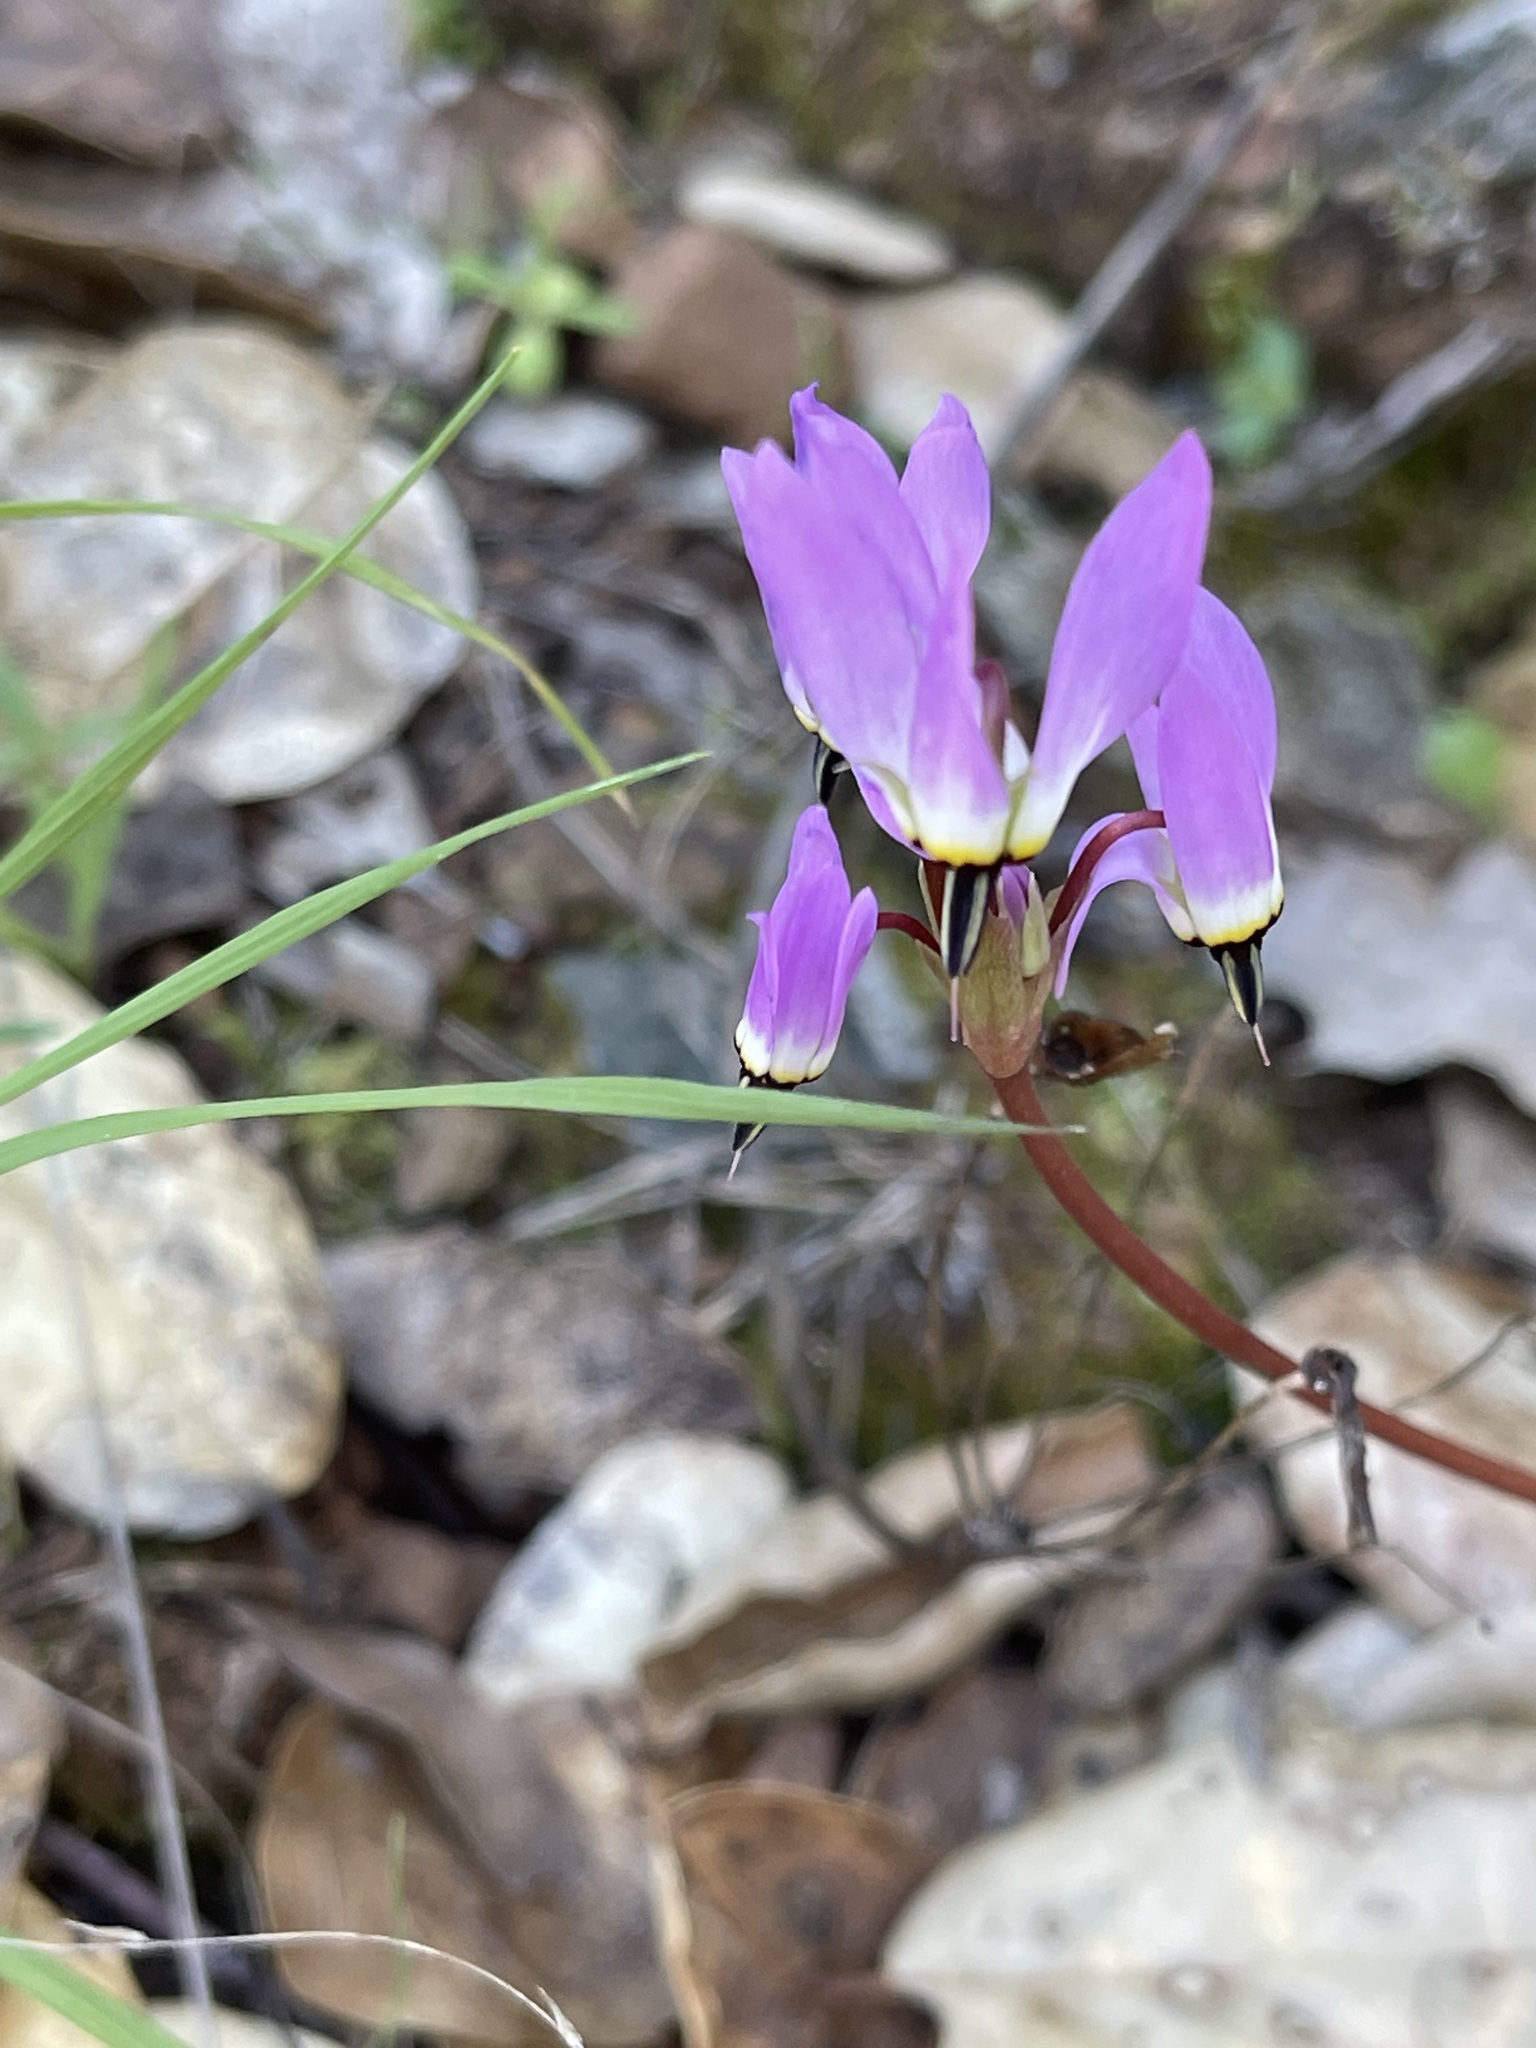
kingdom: Plantae
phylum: Tracheophyta
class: Magnoliopsida
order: Ericales
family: Primulaceae
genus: Dodecatheon
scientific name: Dodecatheon hendersonii
